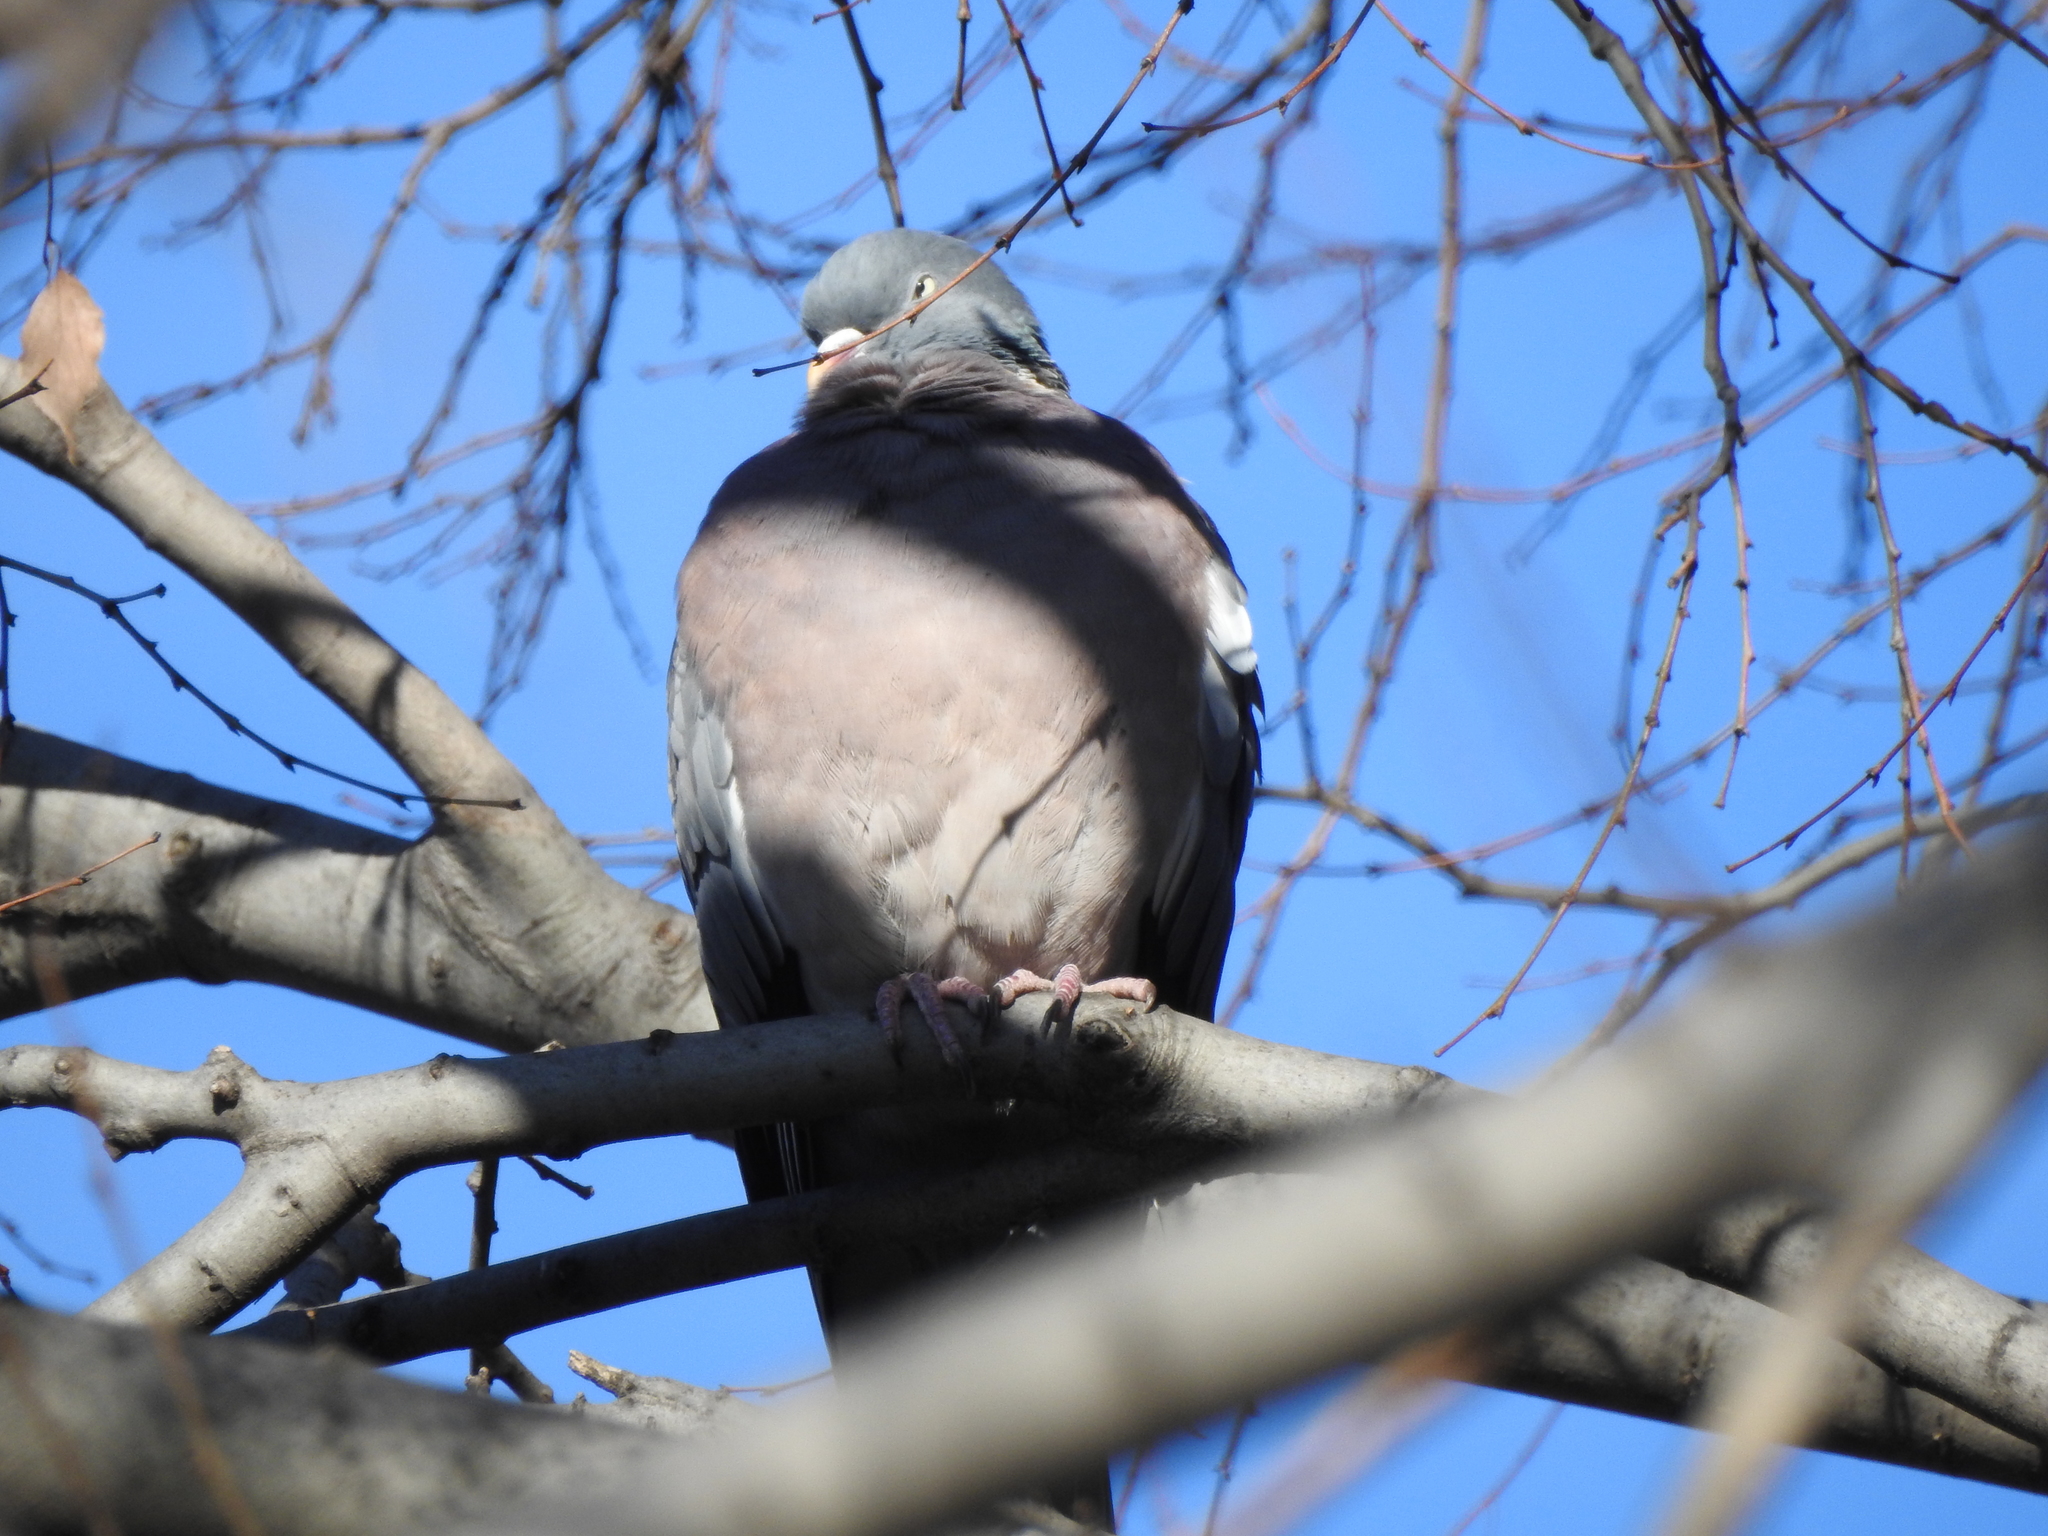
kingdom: Animalia
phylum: Chordata
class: Aves
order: Columbiformes
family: Columbidae
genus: Columba
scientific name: Columba palumbus
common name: Common wood pigeon
